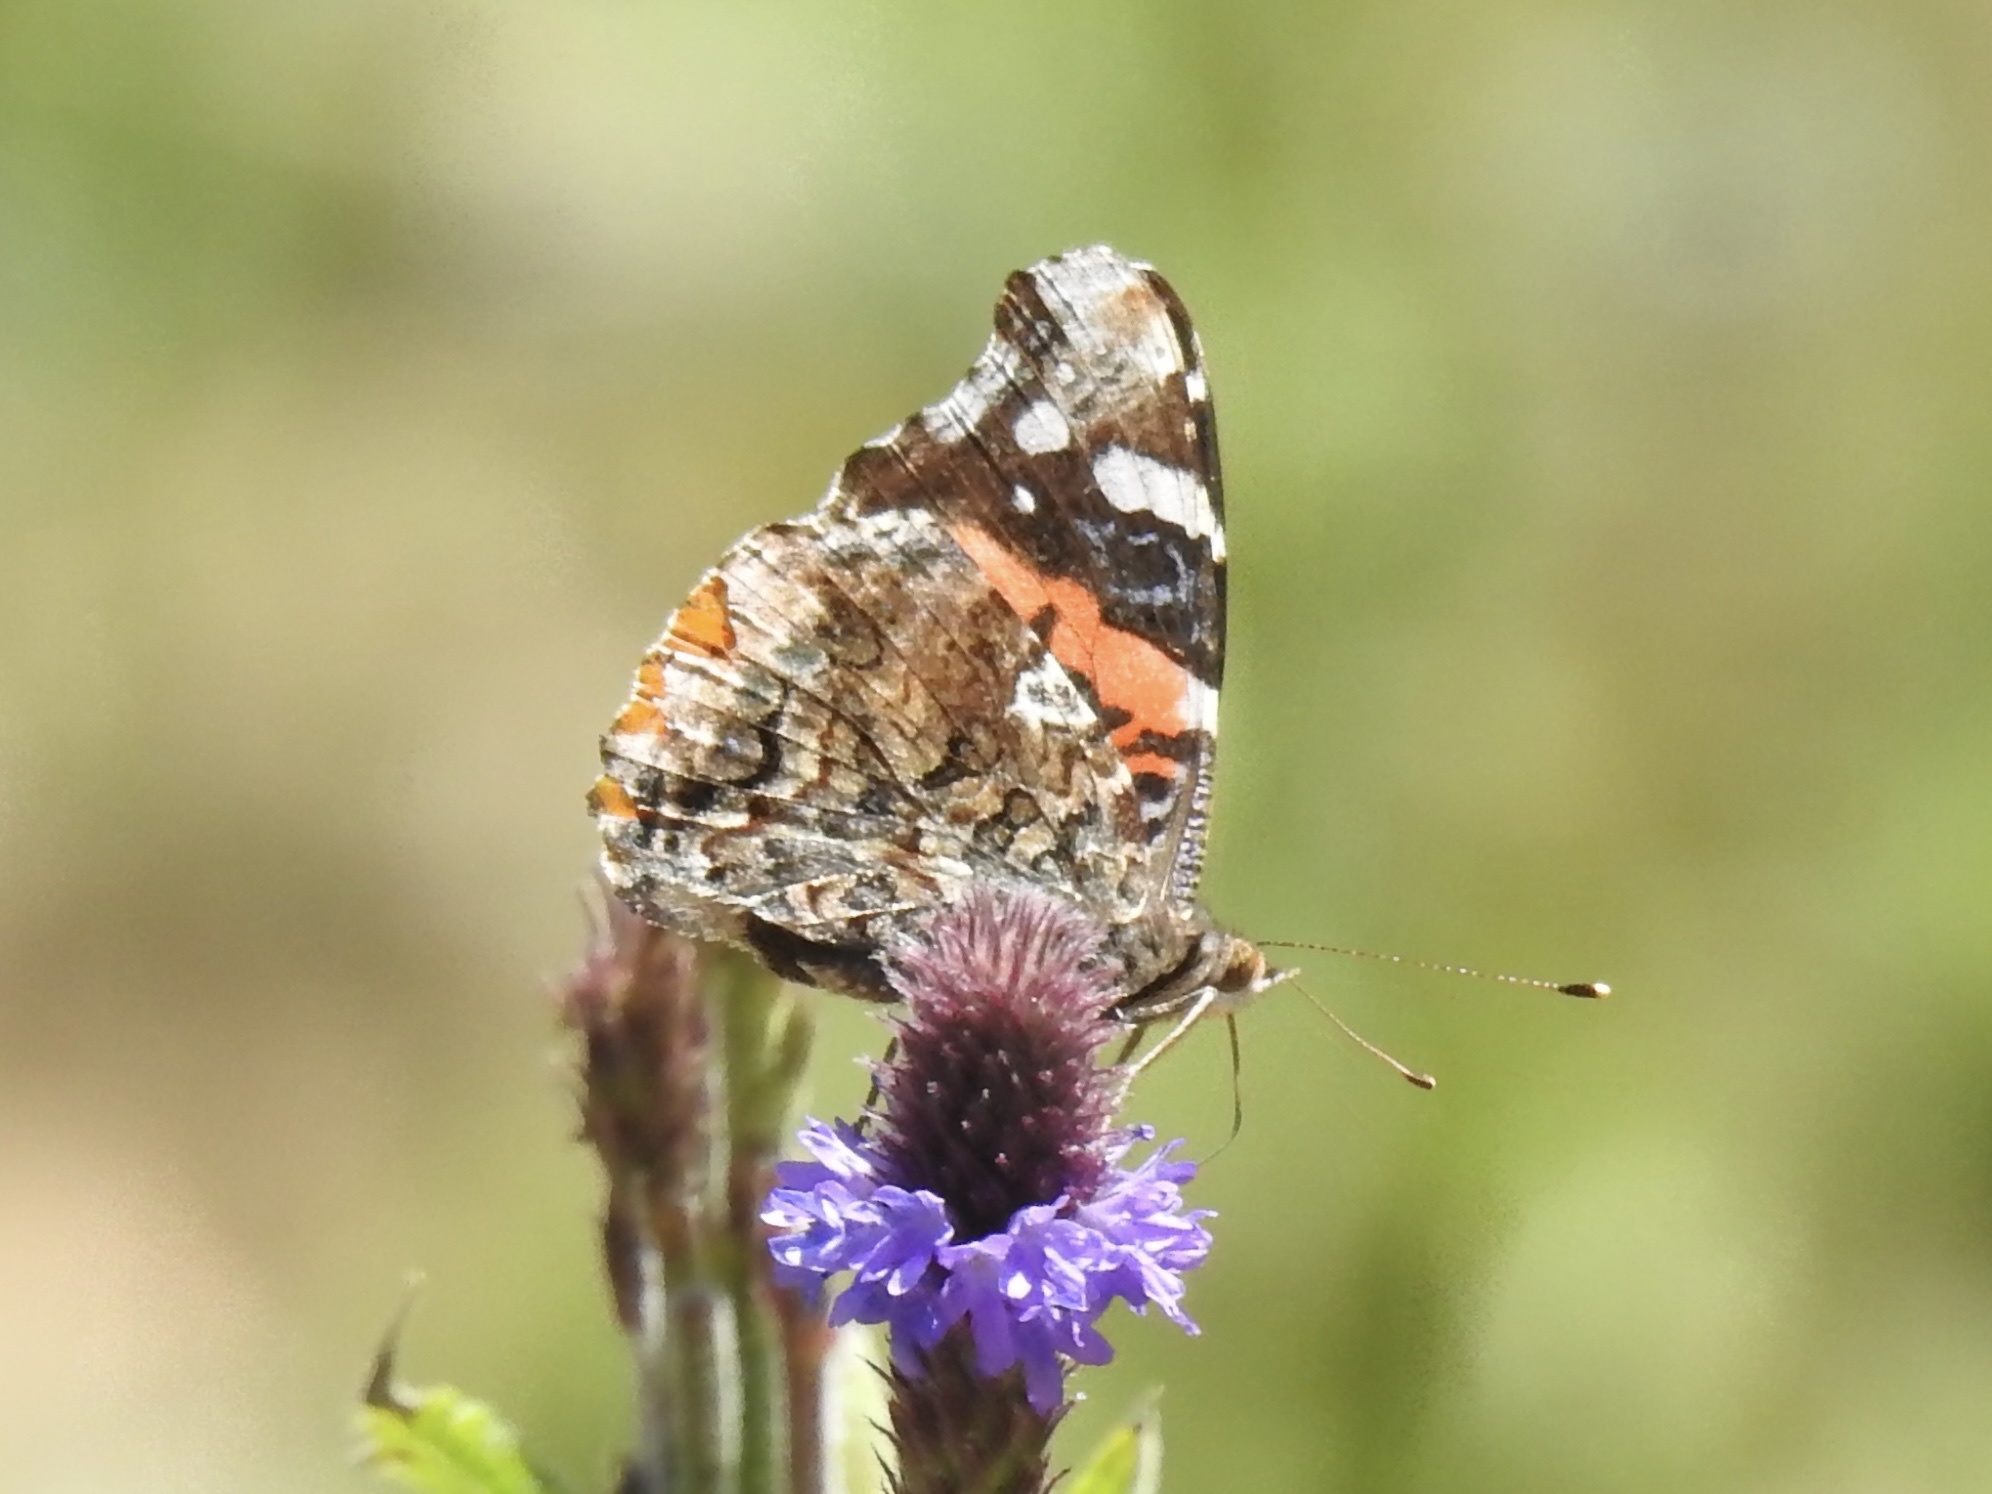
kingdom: Animalia
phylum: Arthropoda
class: Insecta
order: Lepidoptera
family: Nymphalidae
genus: Vanessa
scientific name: Vanessa atalanta
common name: Red admiral
